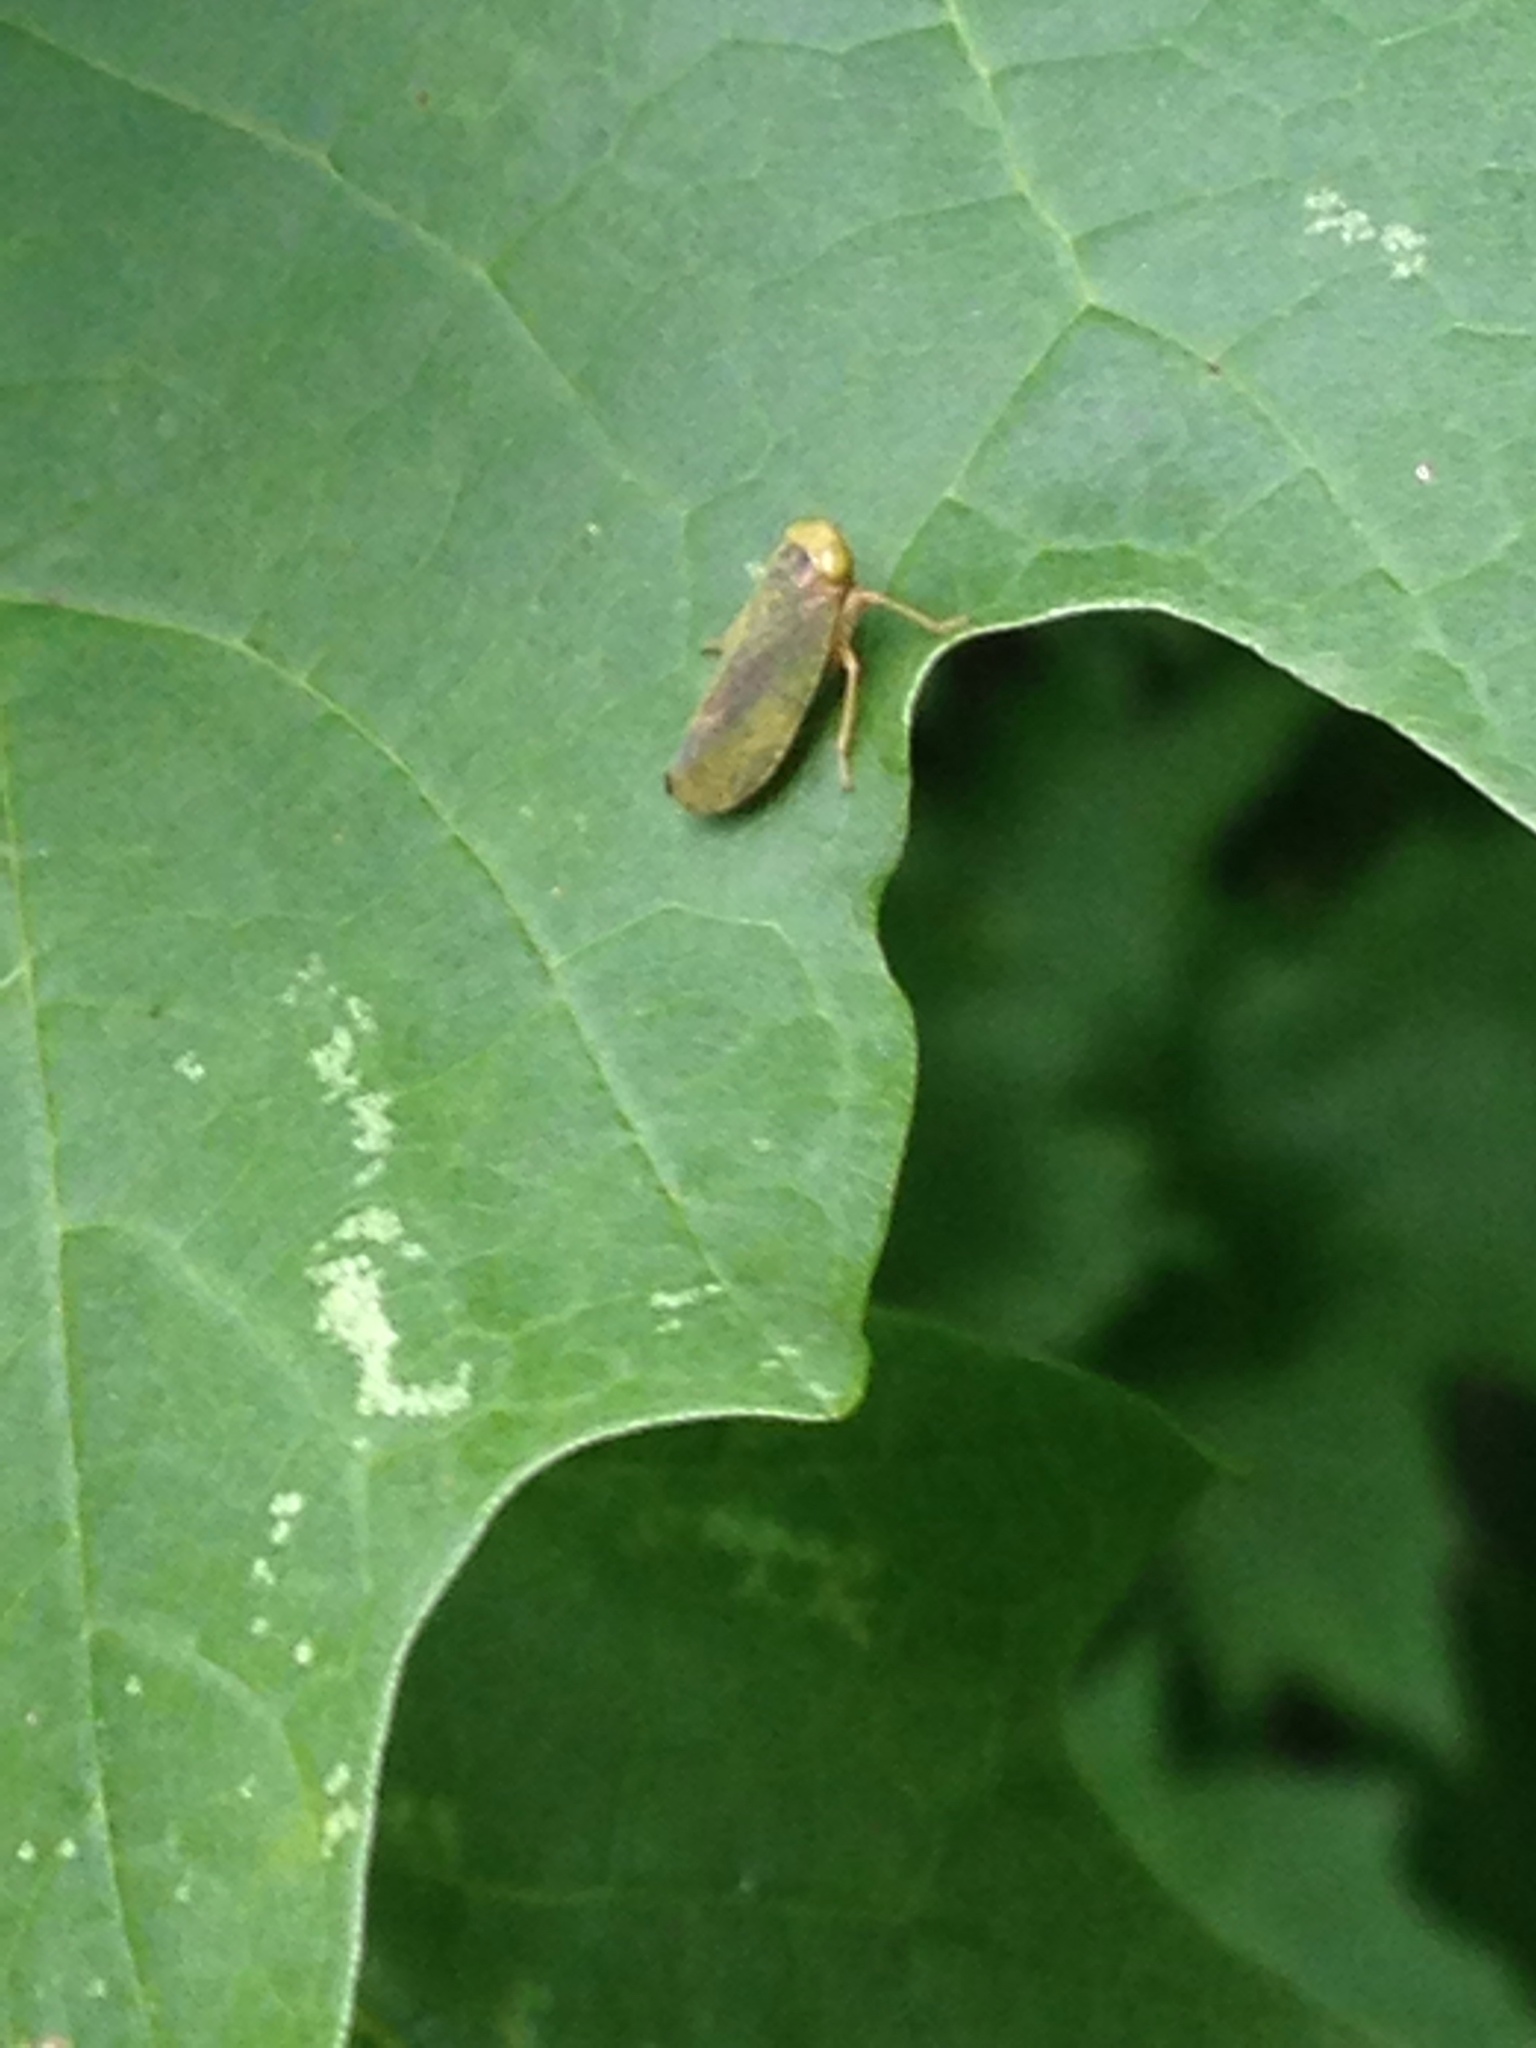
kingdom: Animalia
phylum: Arthropoda
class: Insecta
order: Hemiptera
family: Cicadellidae
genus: Jikradia
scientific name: Jikradia olitoria
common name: Coppery leafhopper
